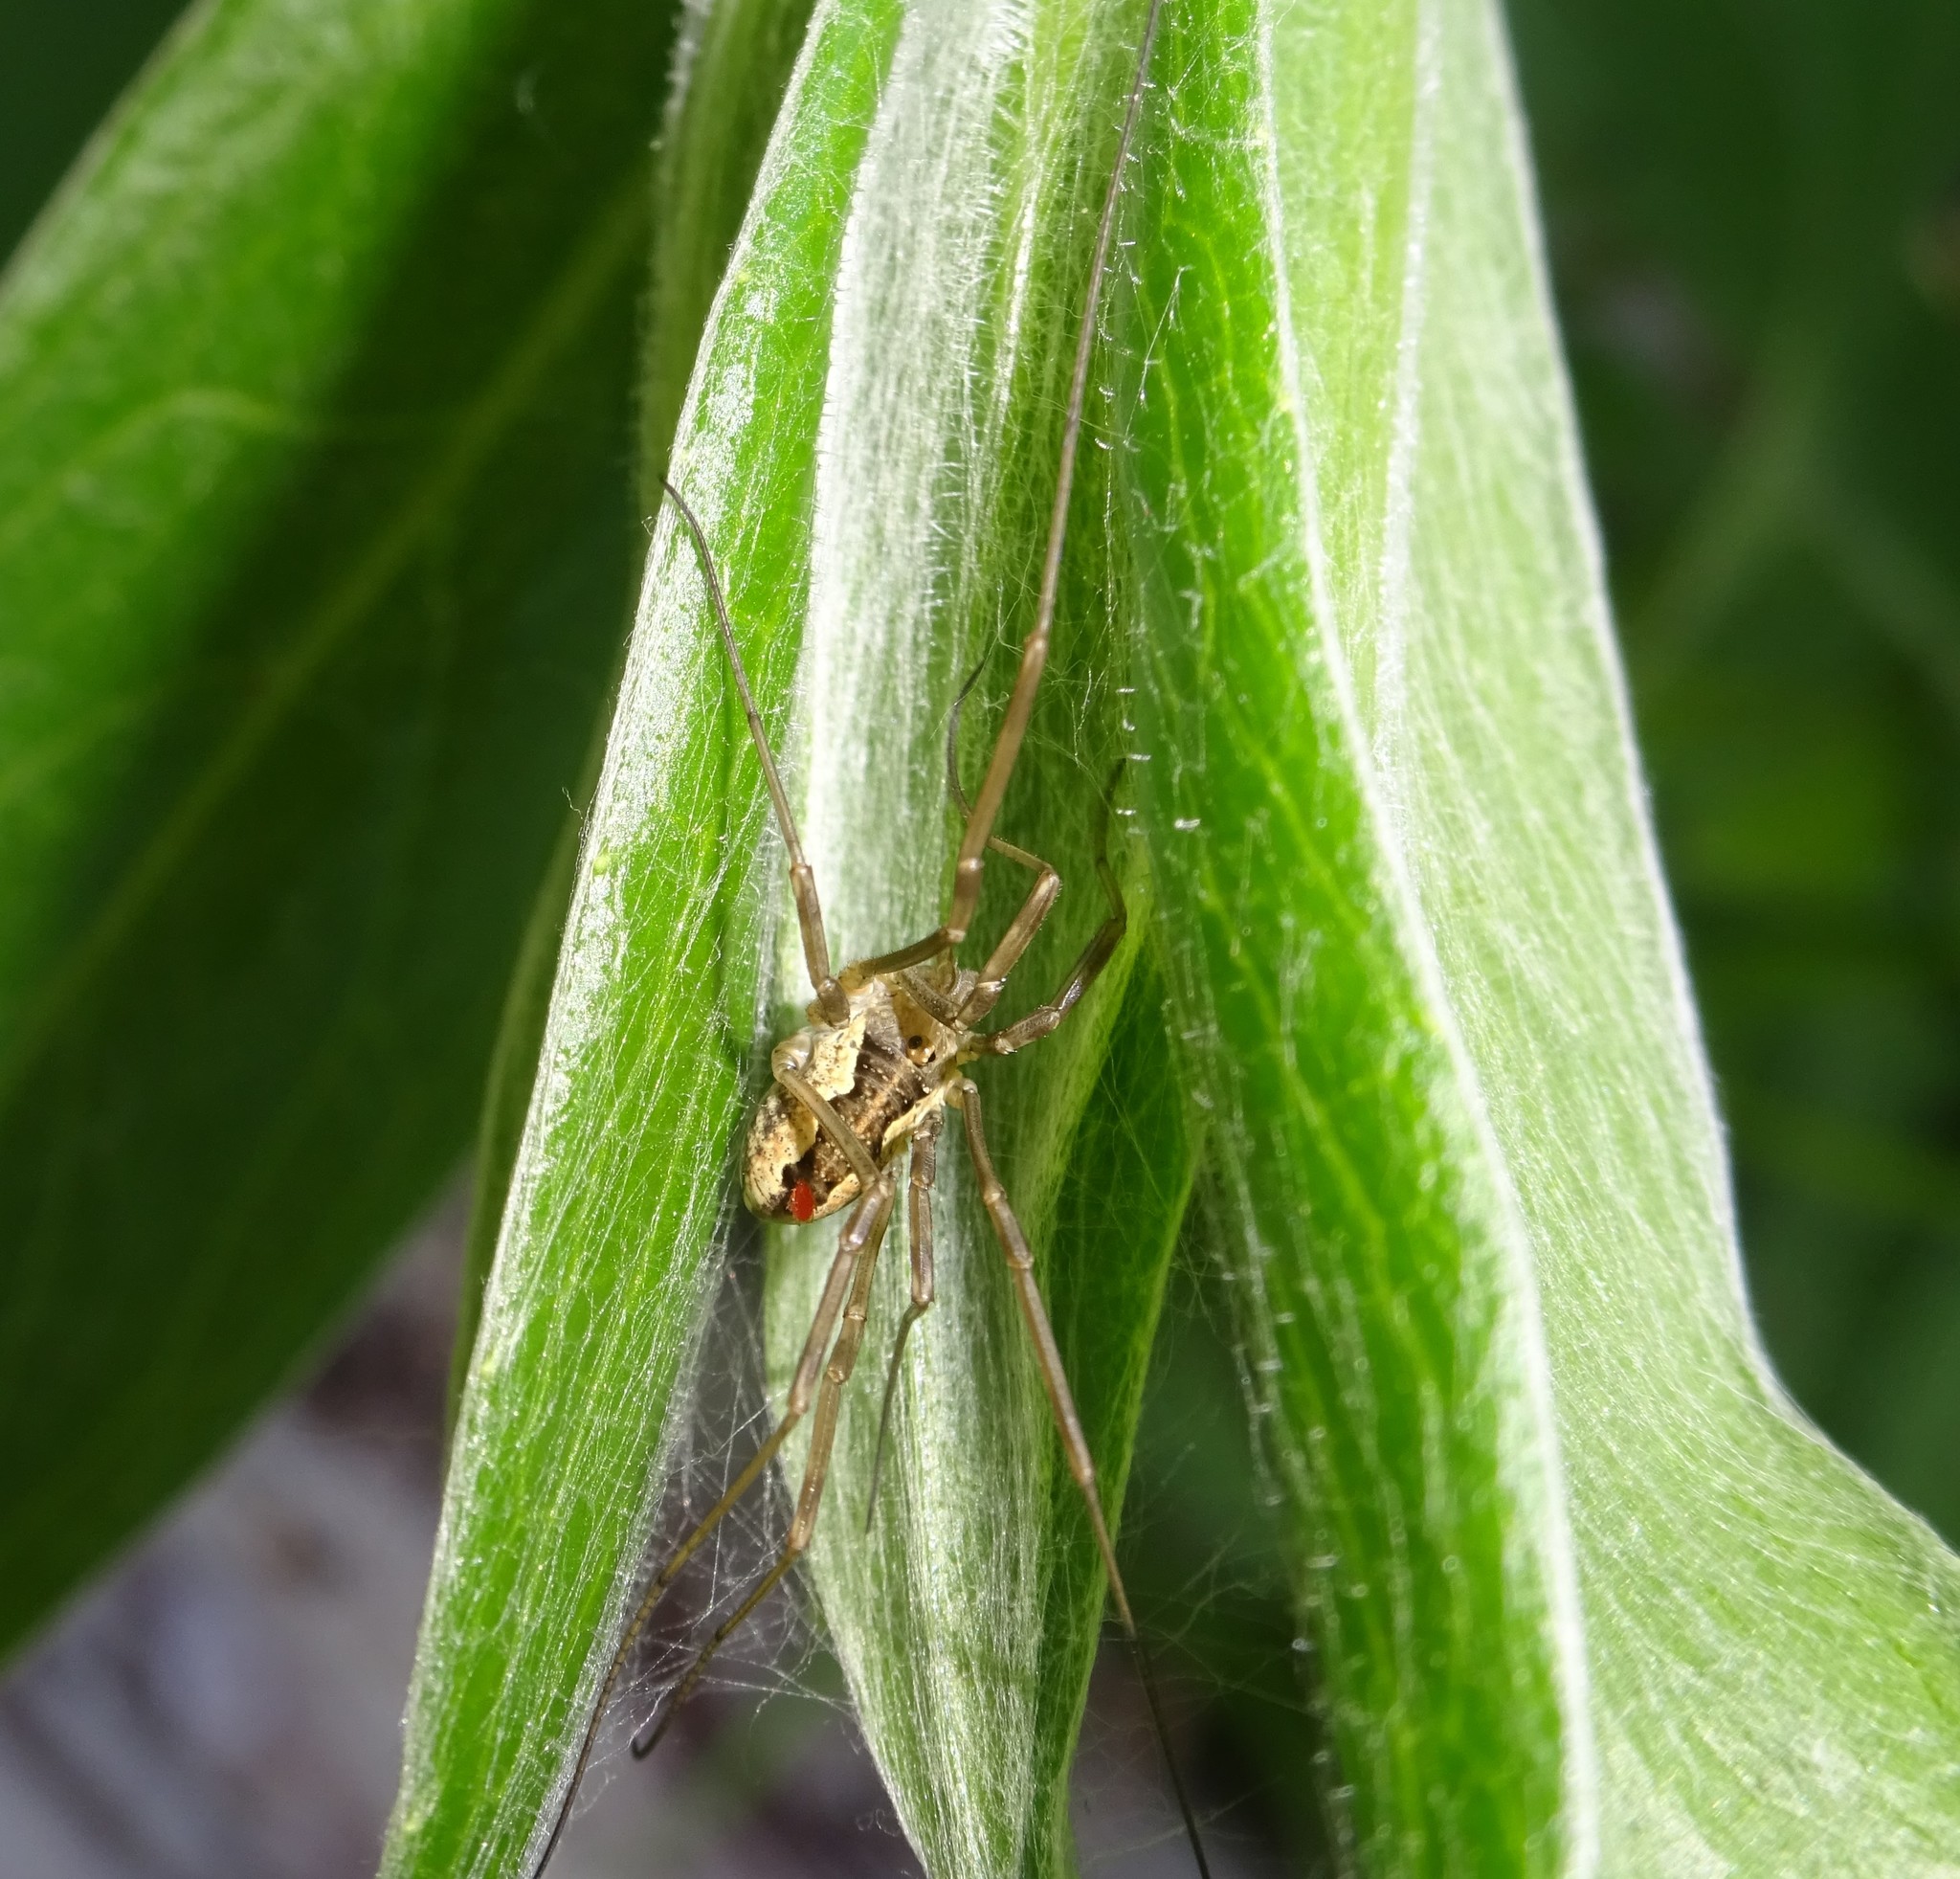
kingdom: Animalia
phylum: Arthropoda
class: Arachnida
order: Opiliones
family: Phalangiidae
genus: Mitopus
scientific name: Mitopus morio
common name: Saddleback harvestman
